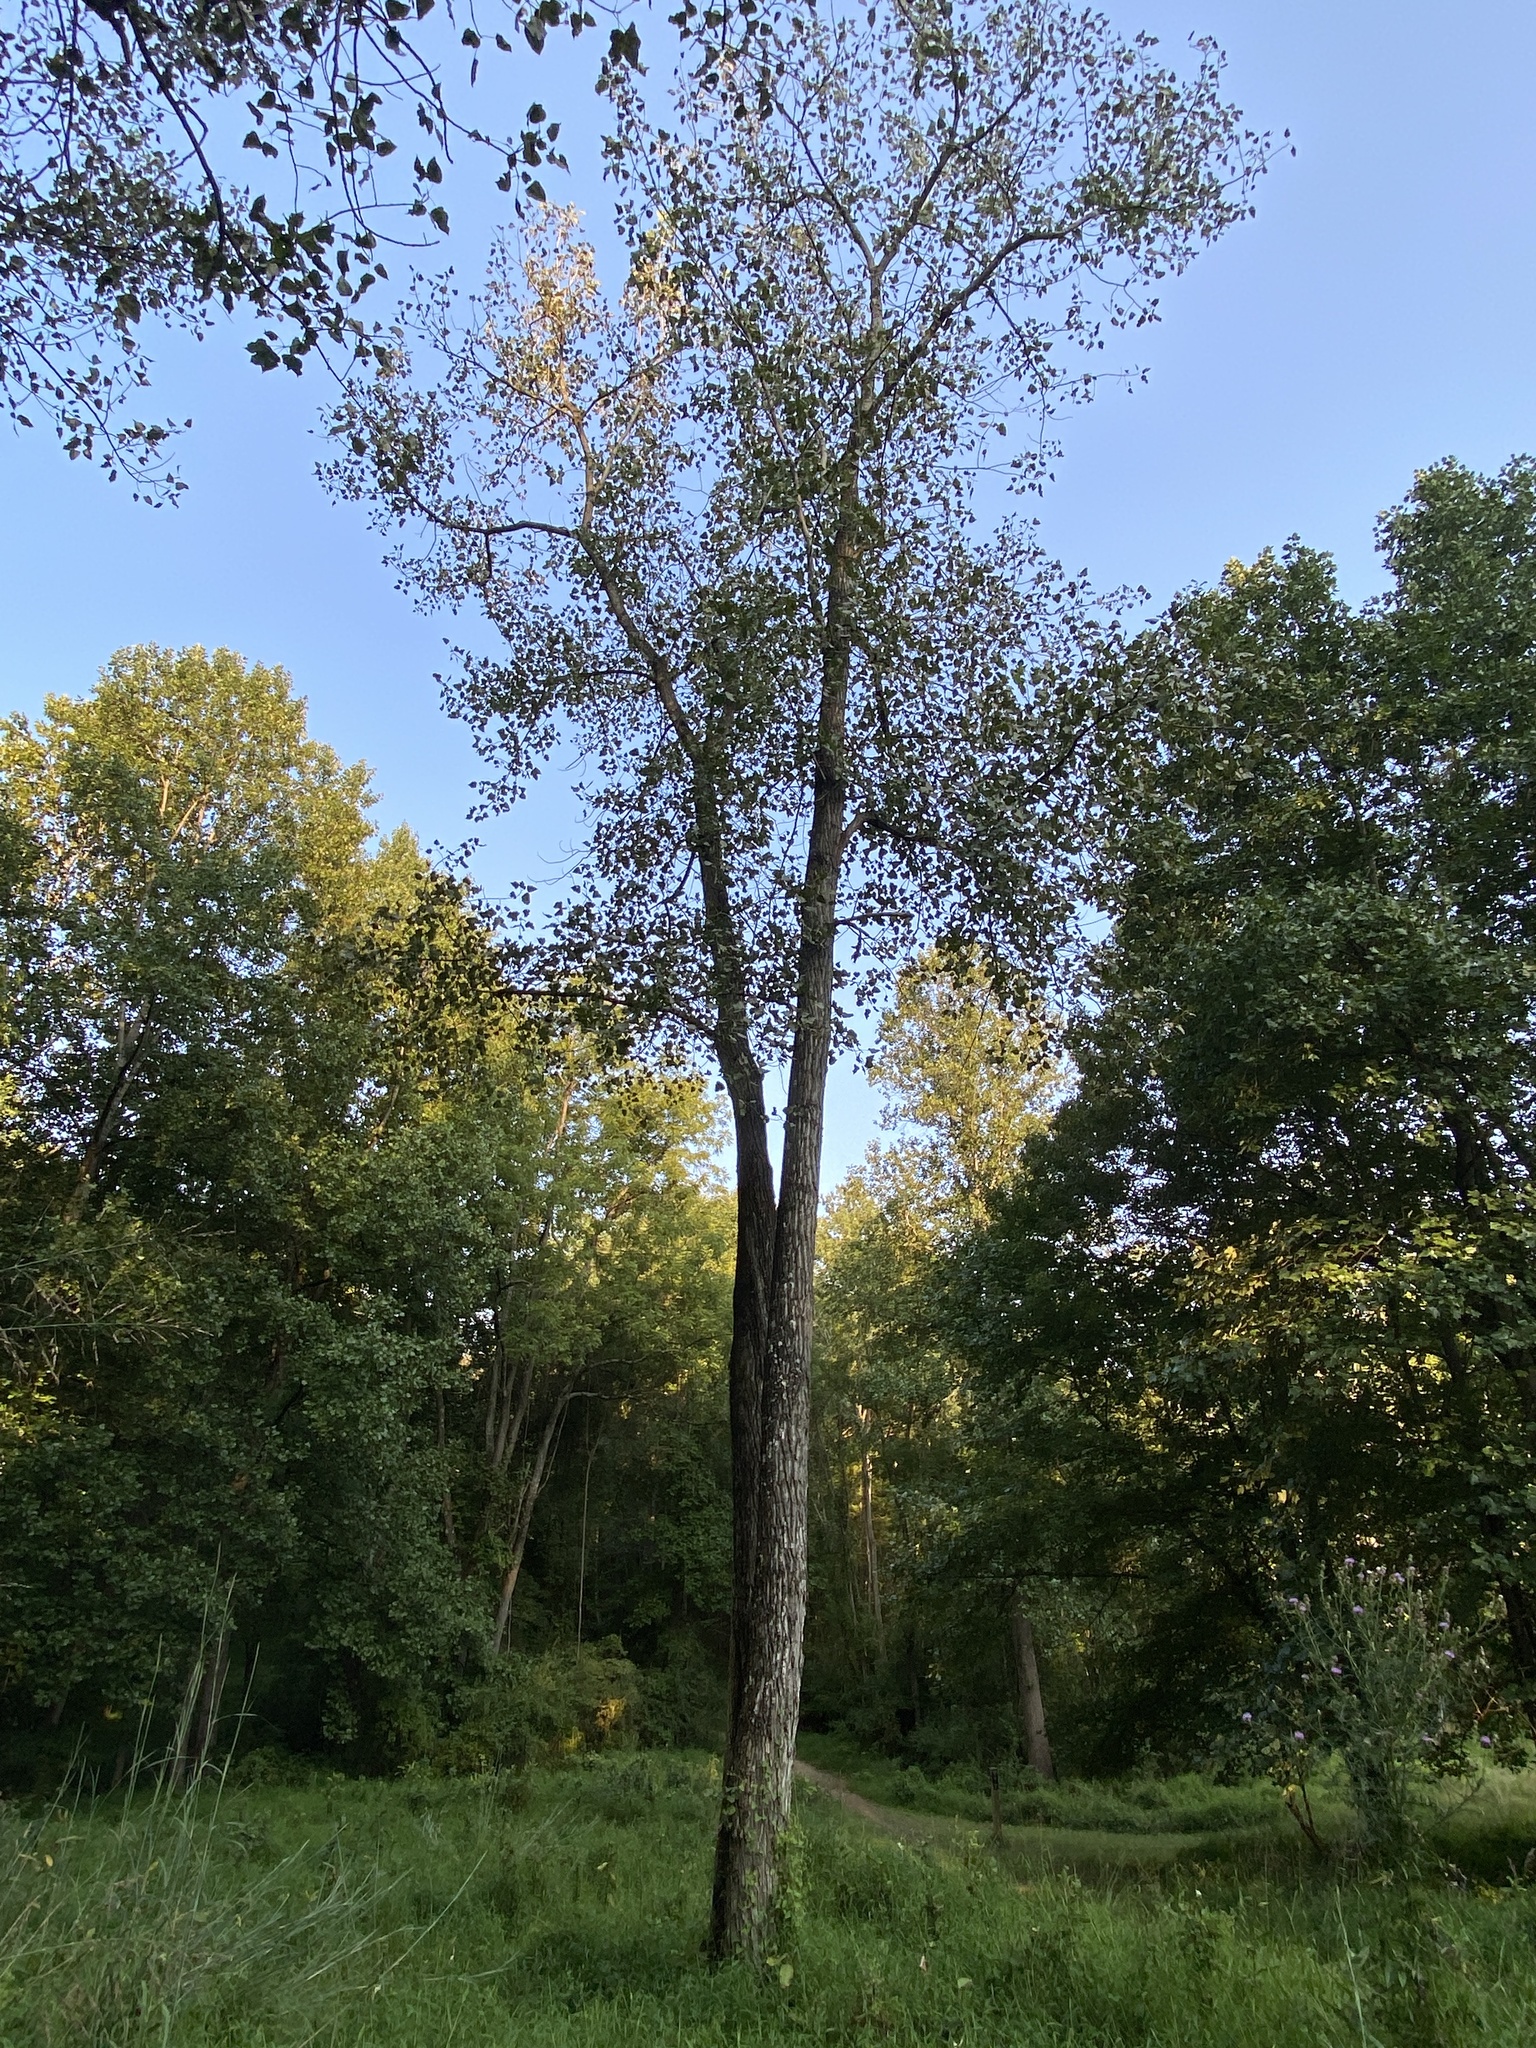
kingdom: Plantae
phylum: Tracheophyta
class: Magnoliopsida
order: Malpighiales
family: Salicaceae
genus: Populus
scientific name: Populus deltoides
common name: Eastern cottonwood
